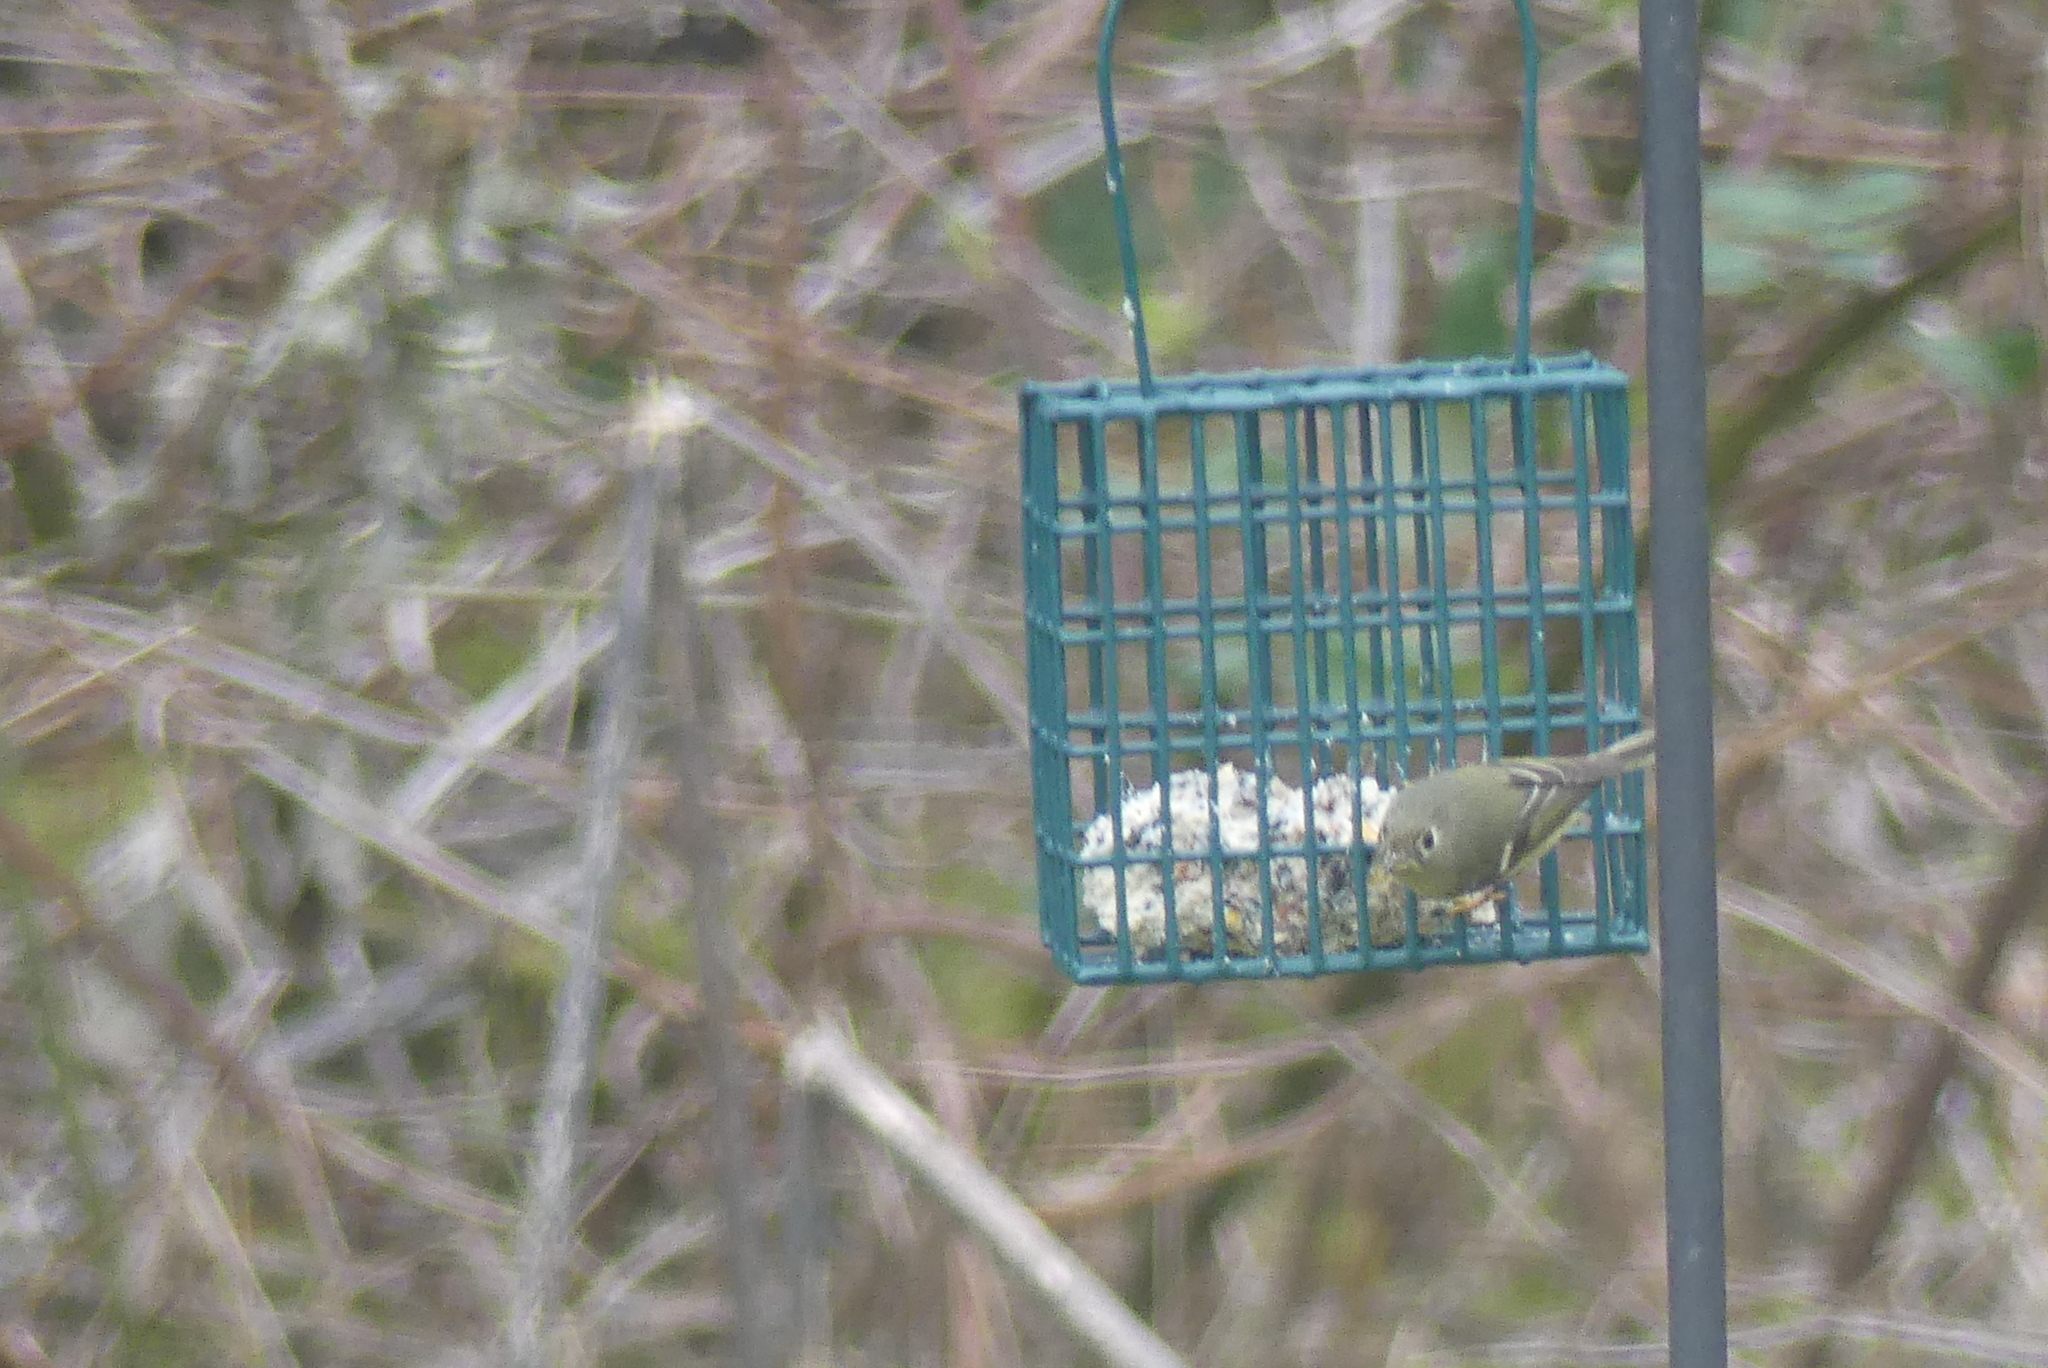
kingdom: Animalia
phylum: Chordata
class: Aves
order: Passeriformes
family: Regulidae
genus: Regulus
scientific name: Regulus calendula
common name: Ruby-crowned kinglet
